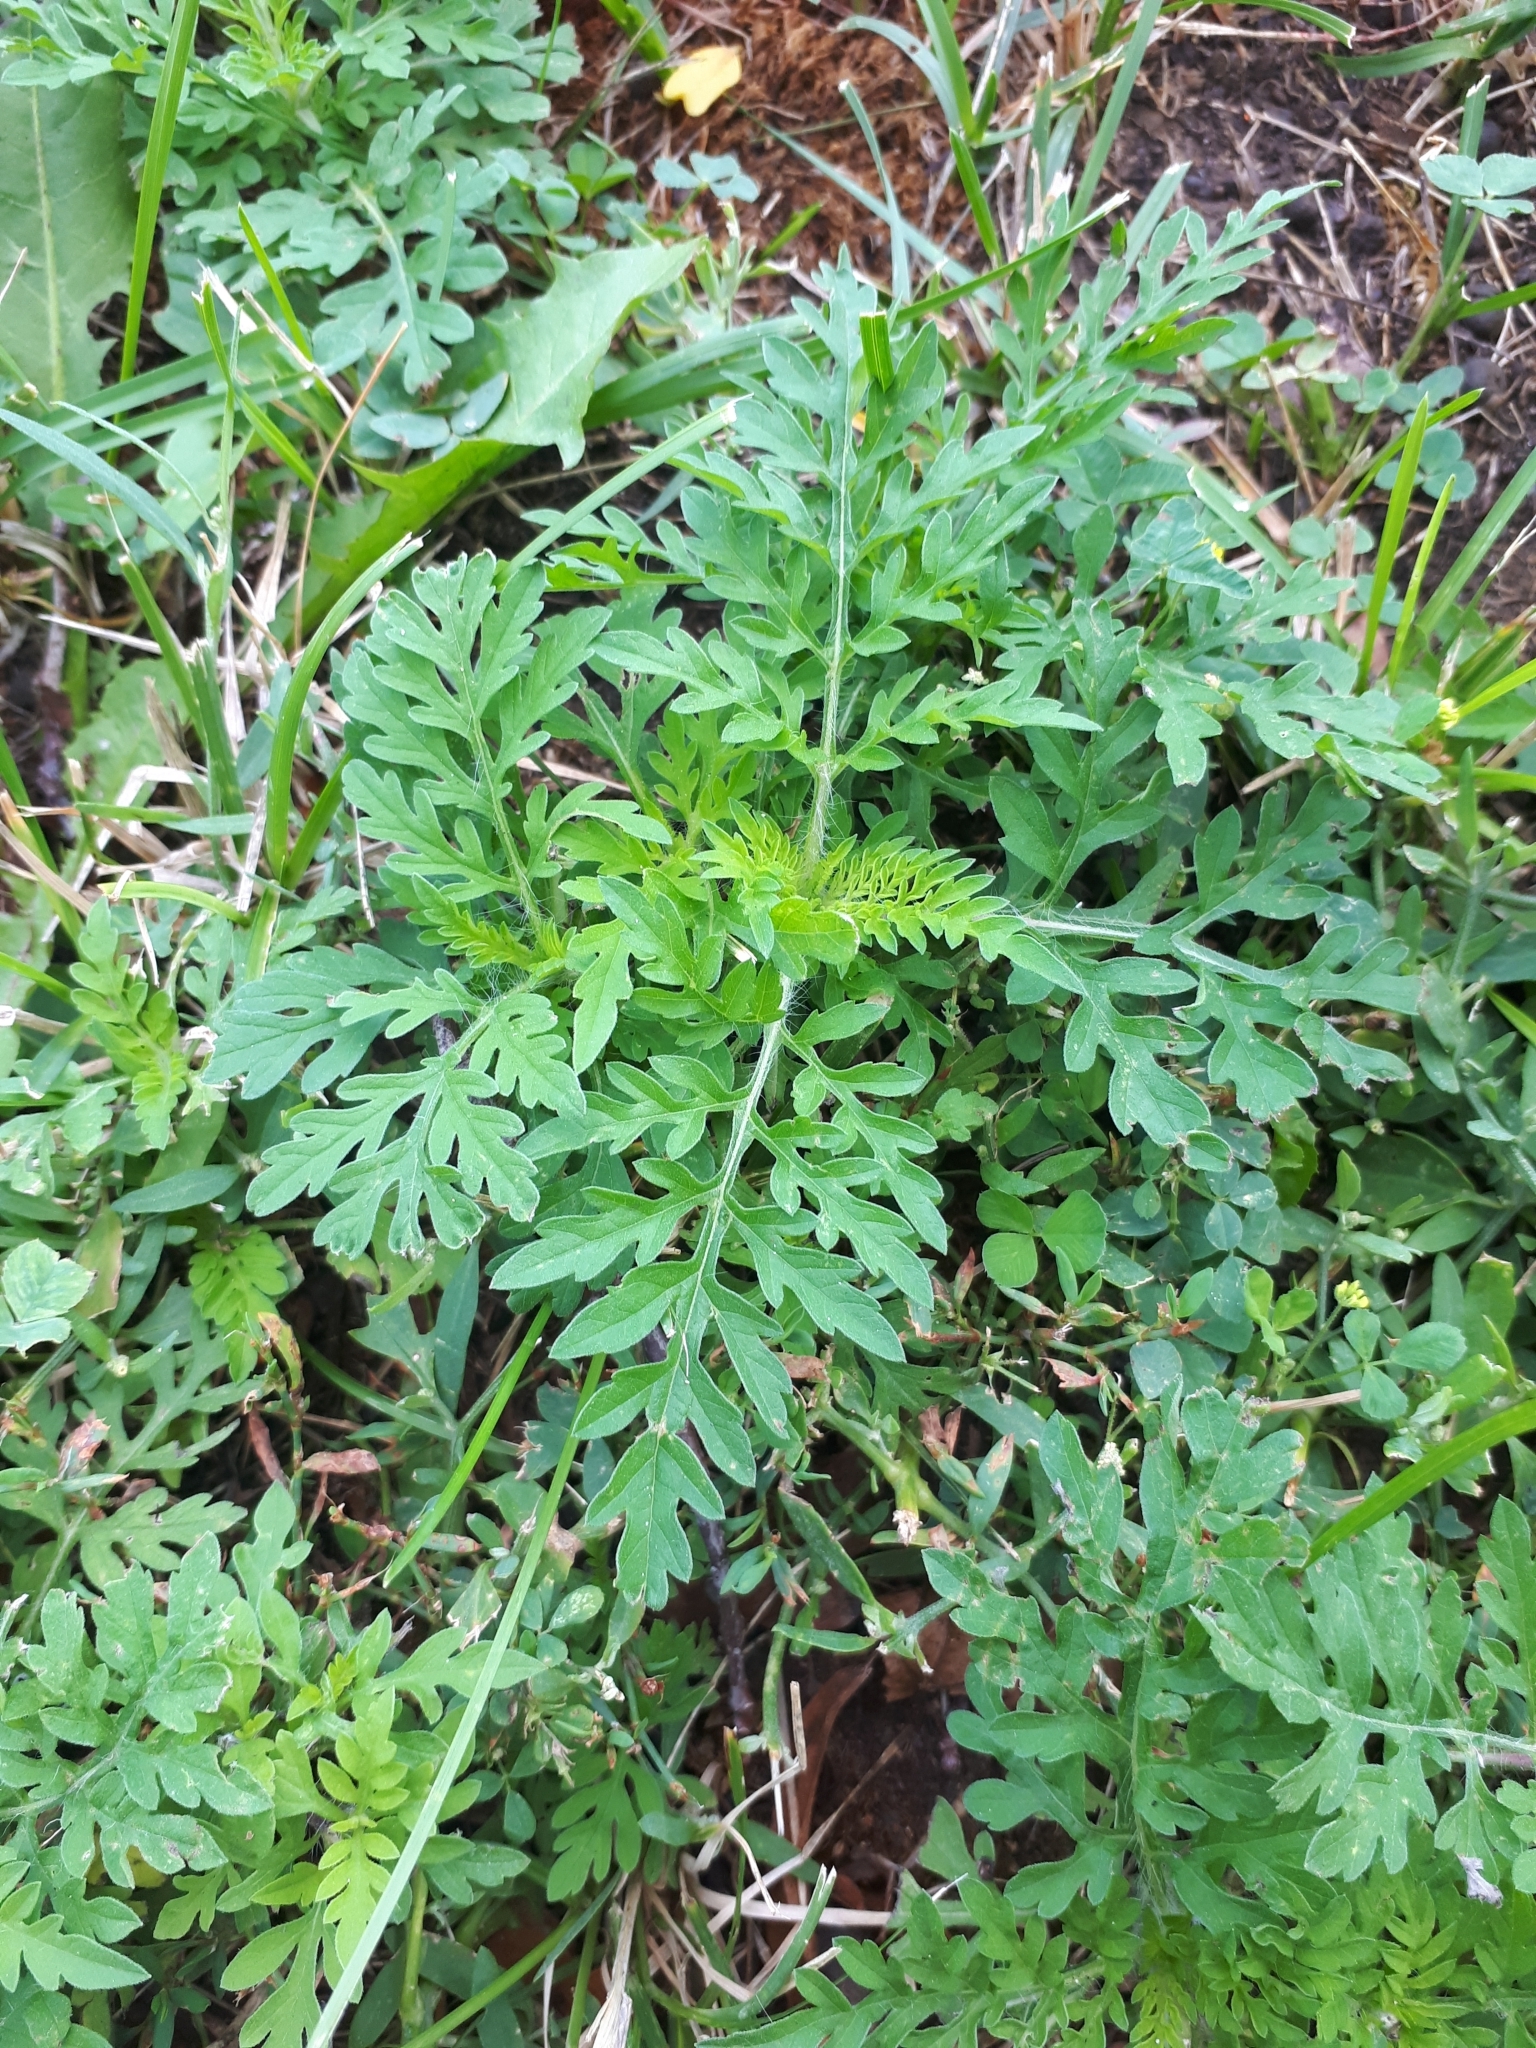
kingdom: Plantae
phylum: Tracheophyta
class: Magnoliopsida
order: Asterales
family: Asteraceae
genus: Ambrosia
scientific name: Ambrosia artemisiifolia
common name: Annual ragweed
